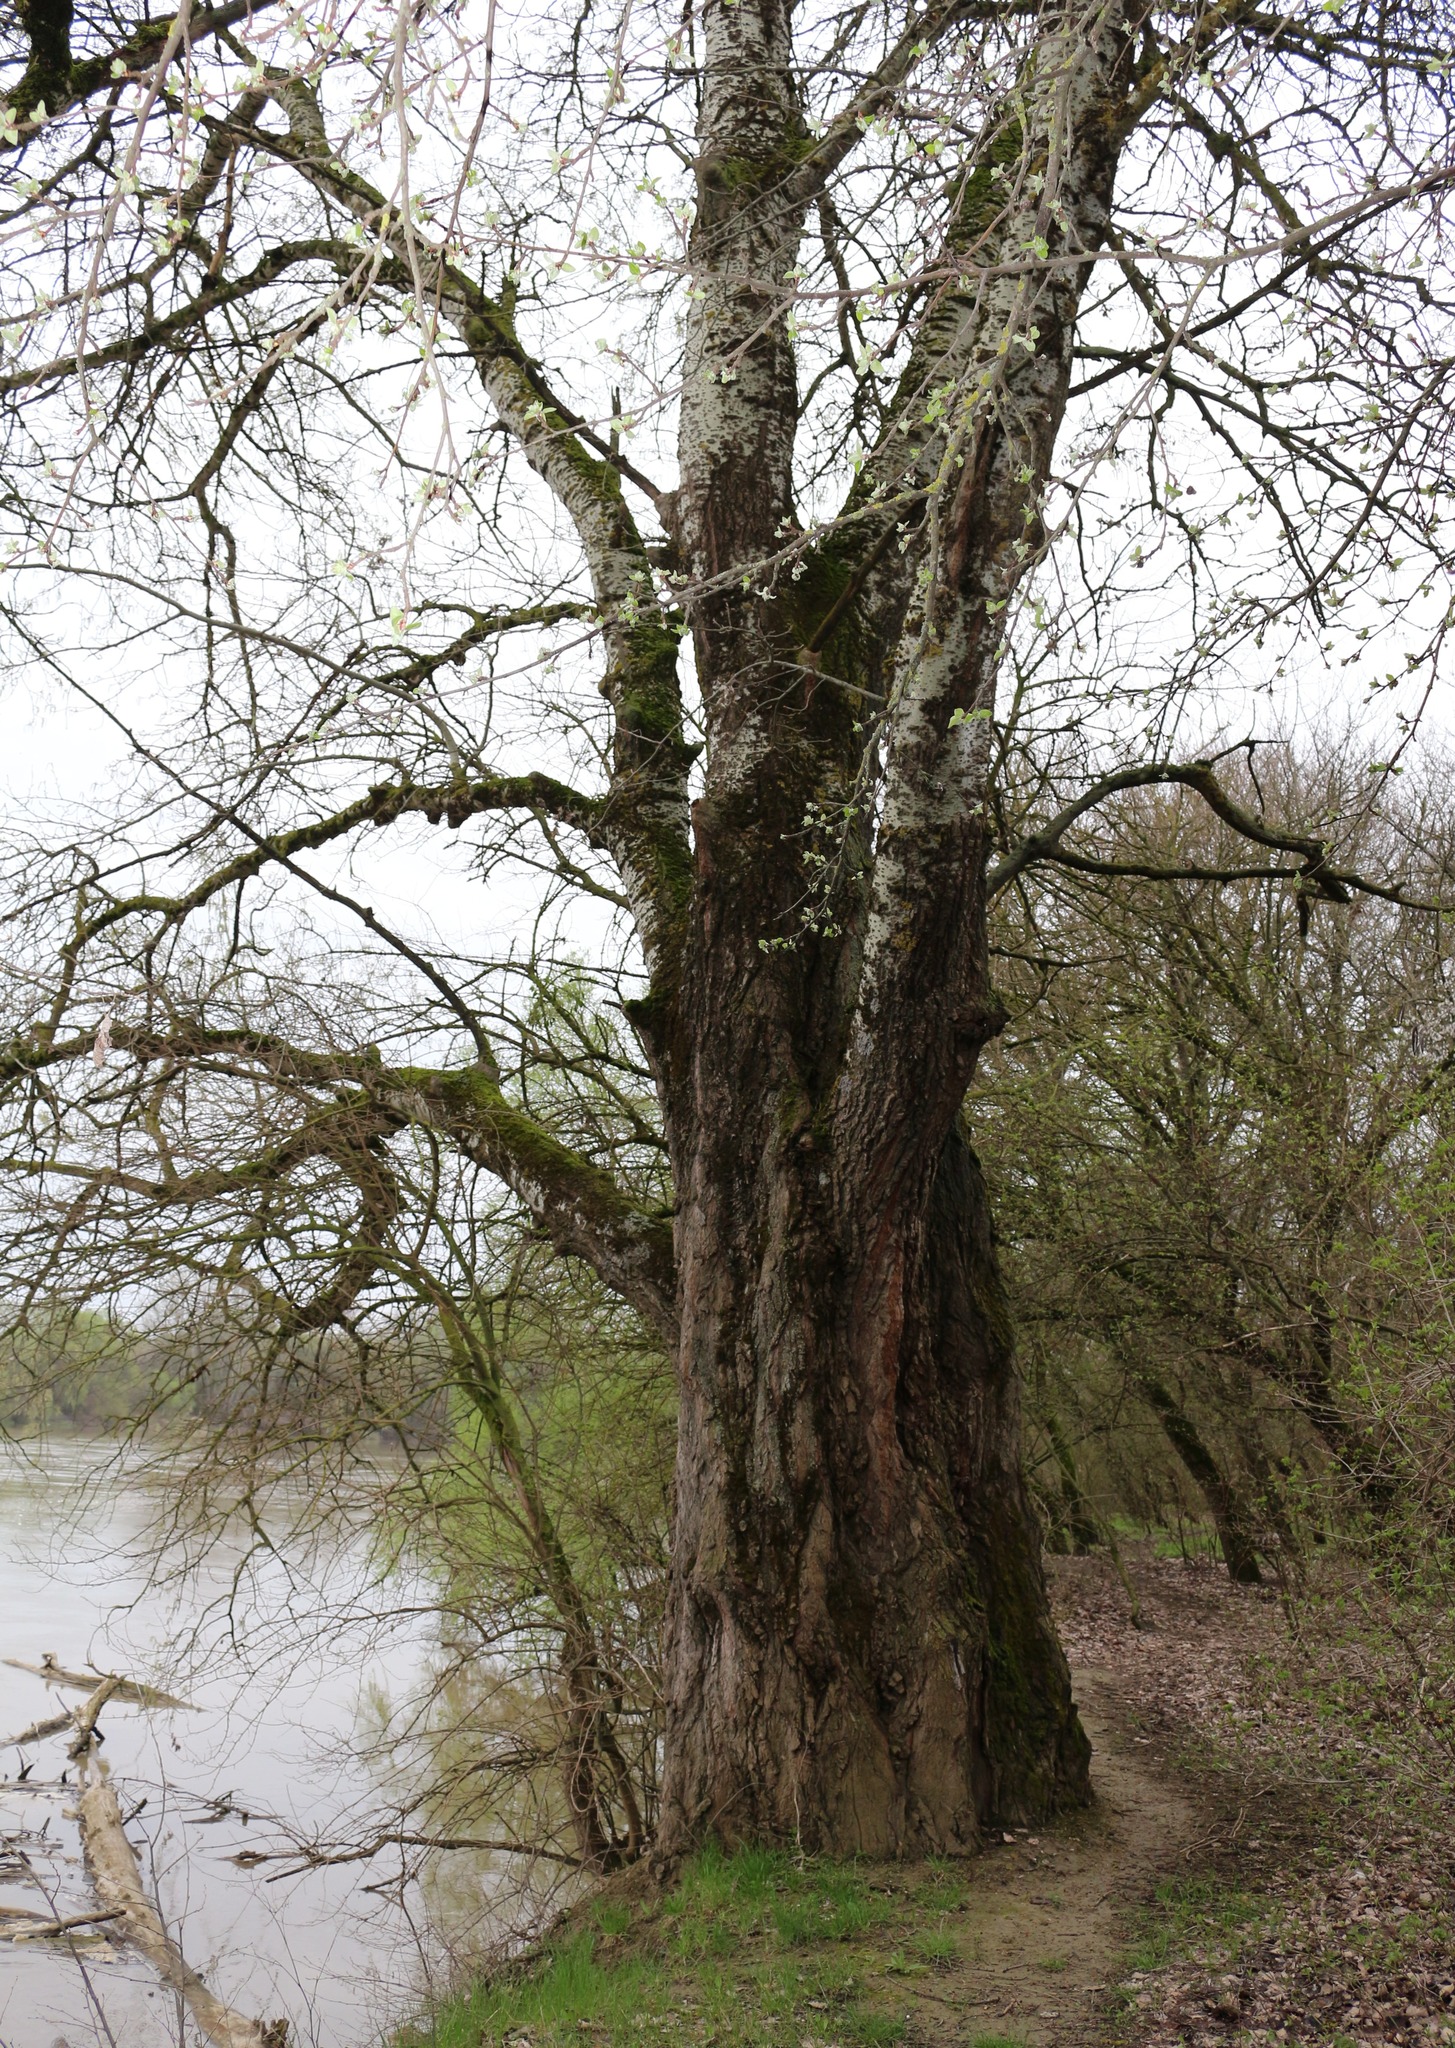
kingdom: Plantae
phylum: Tracheophyta
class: Magnoliopsida
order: Malpighiales
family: Salicaceae
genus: Populus
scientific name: Populus alba
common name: White poplar
